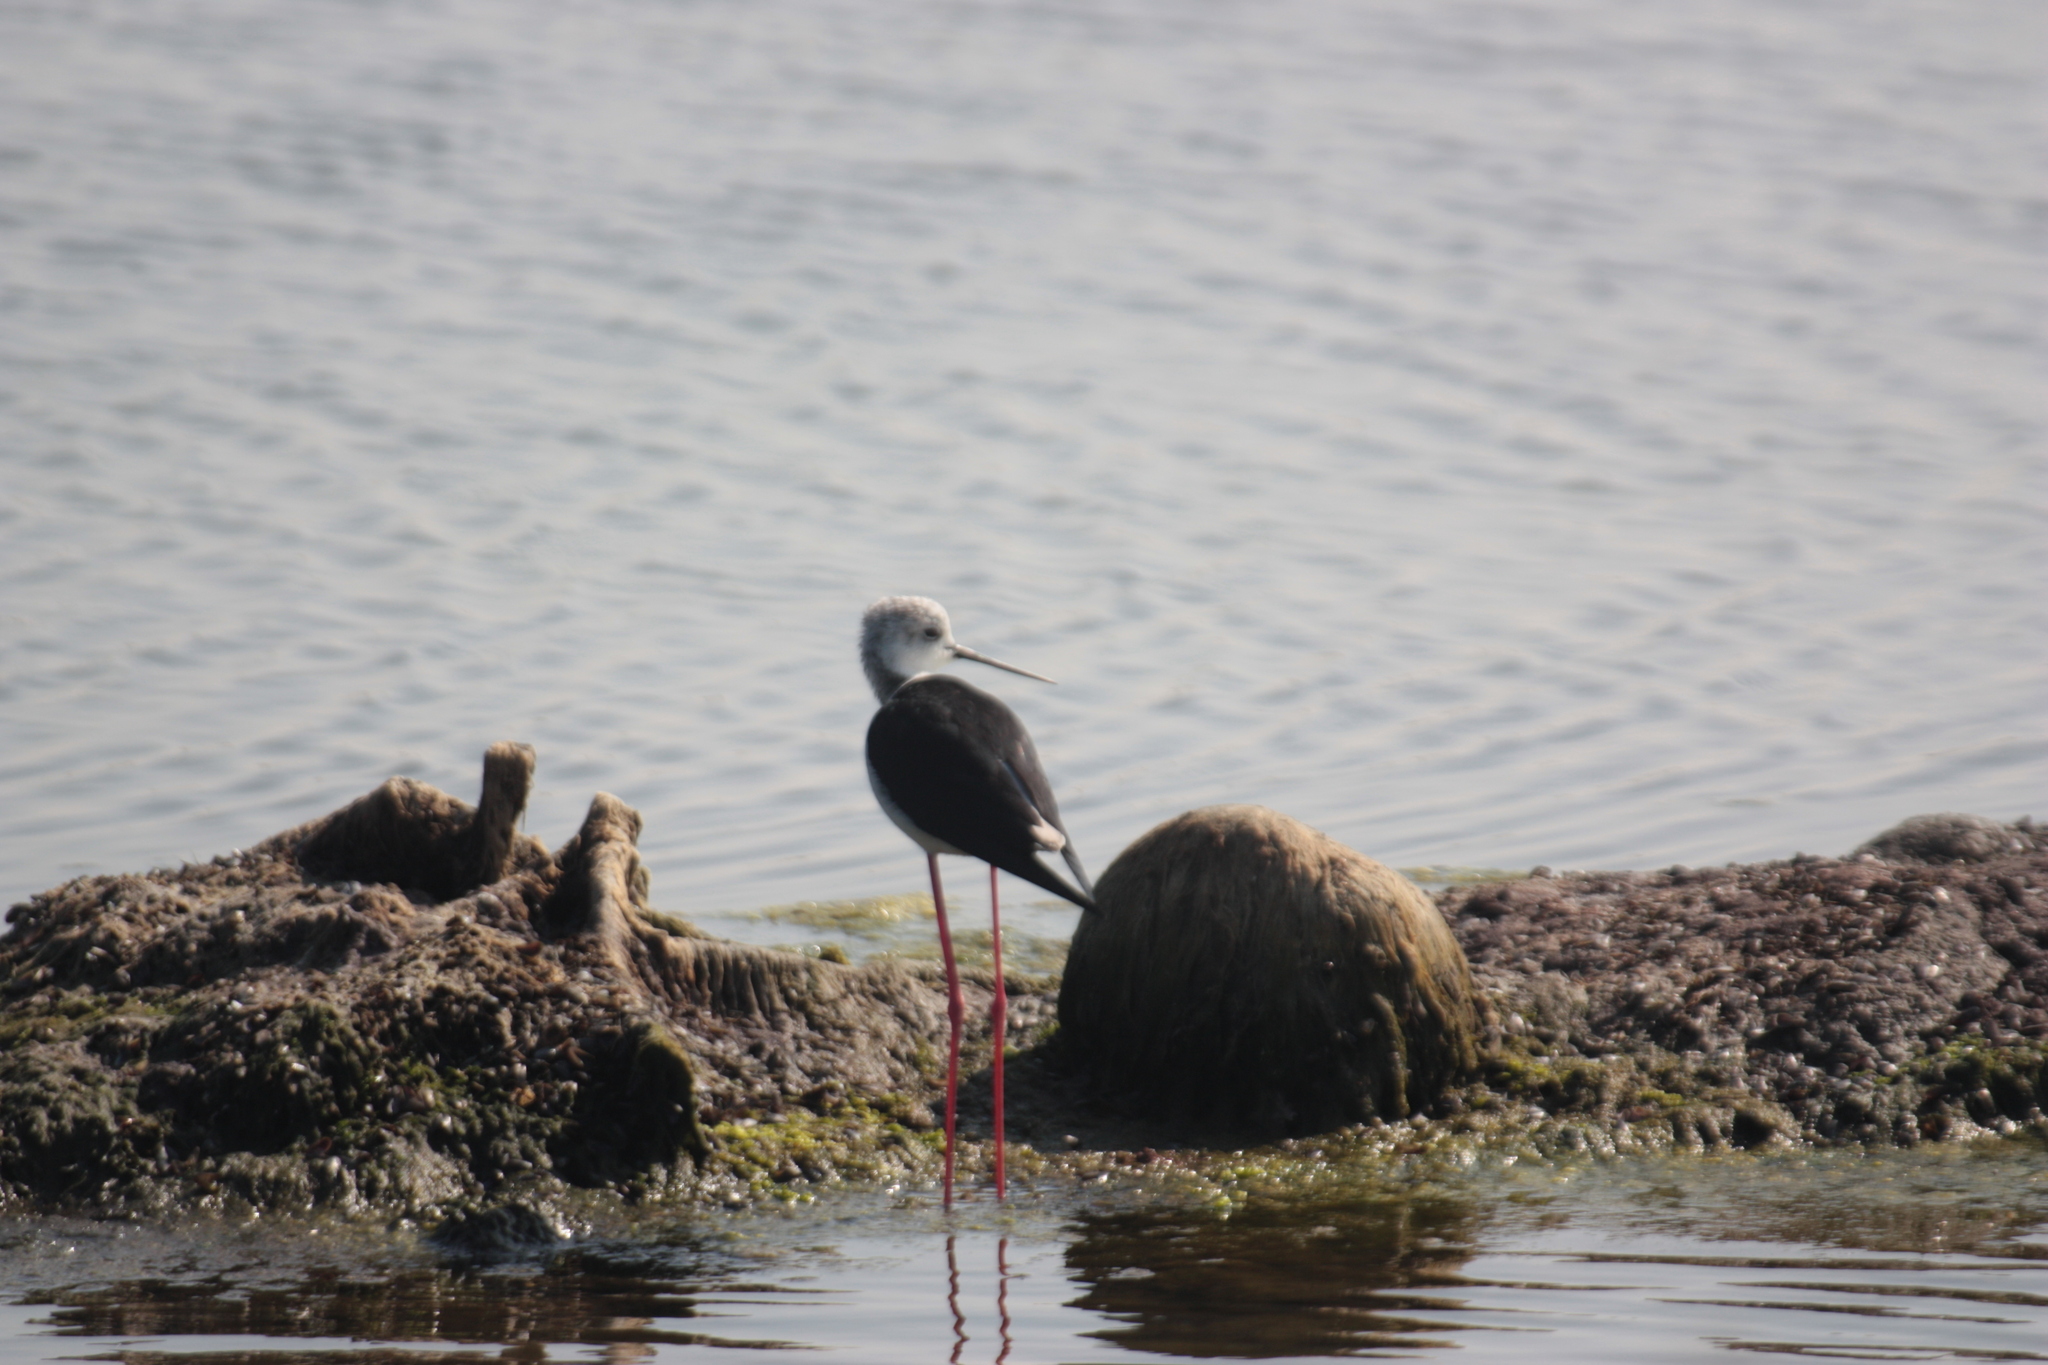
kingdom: Animalia
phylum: Chordata
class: Aves
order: Charadriiformes
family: Recurvirostridae
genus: Himantopus
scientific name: Himantopus himantopus
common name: Black-winged stilt
